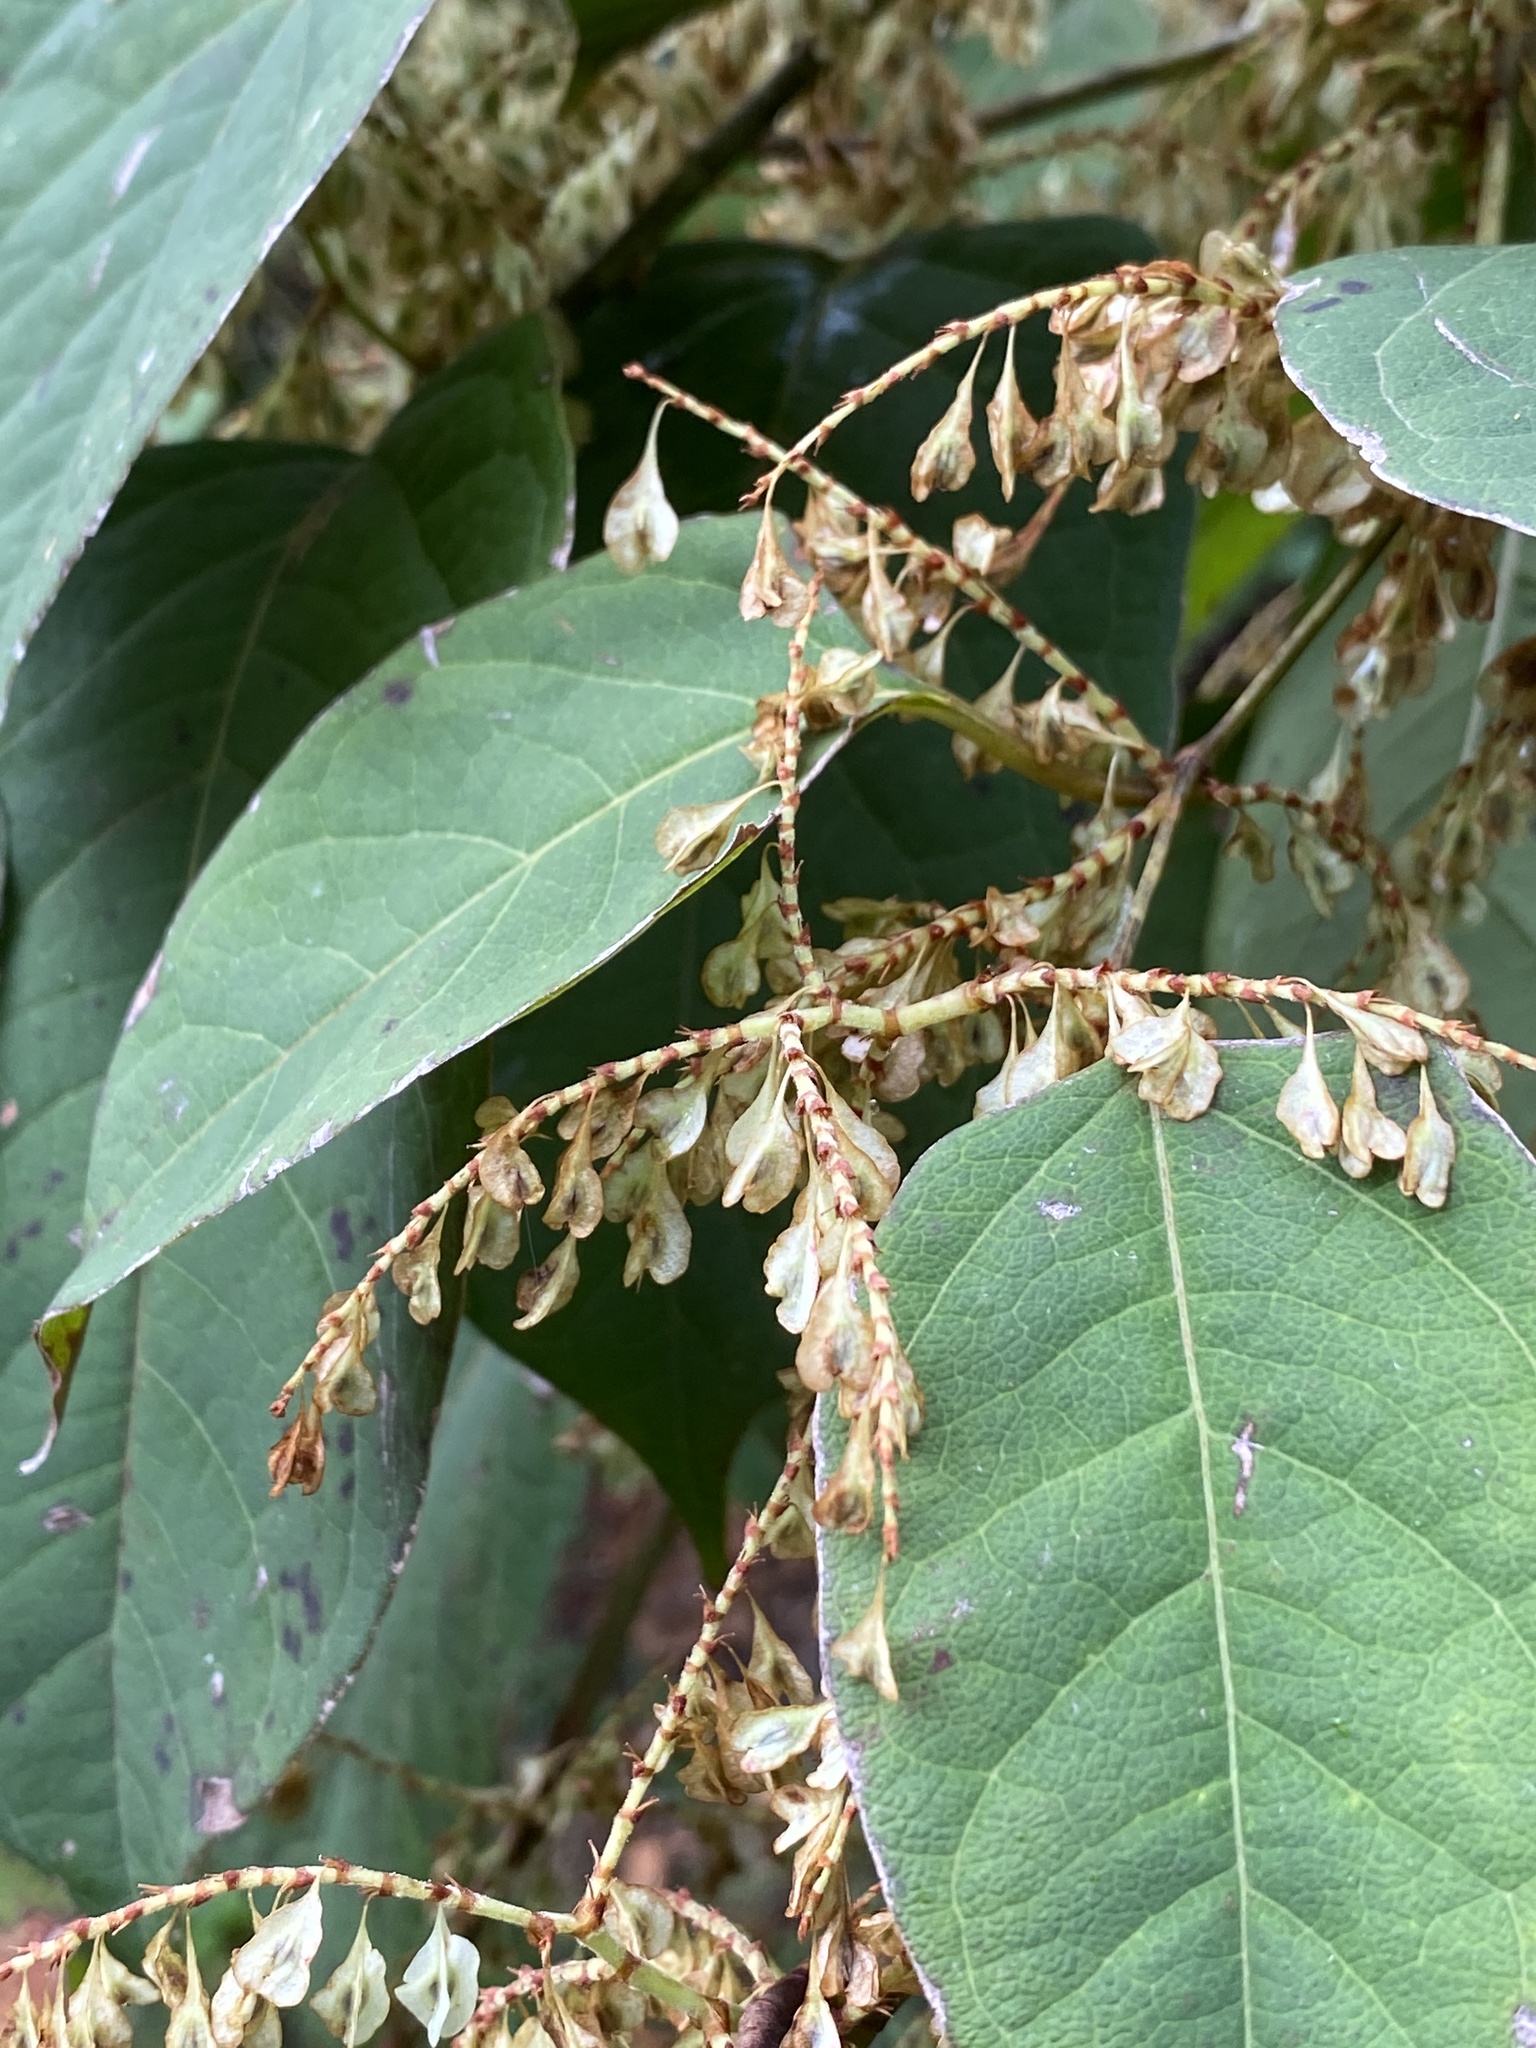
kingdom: Plantae
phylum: Tracheophyta
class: Magnoliopsida
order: Caryophyllales
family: Polygonaceae
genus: Reynoutria
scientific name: Reynoutria japonica
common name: Japanese knotweed
